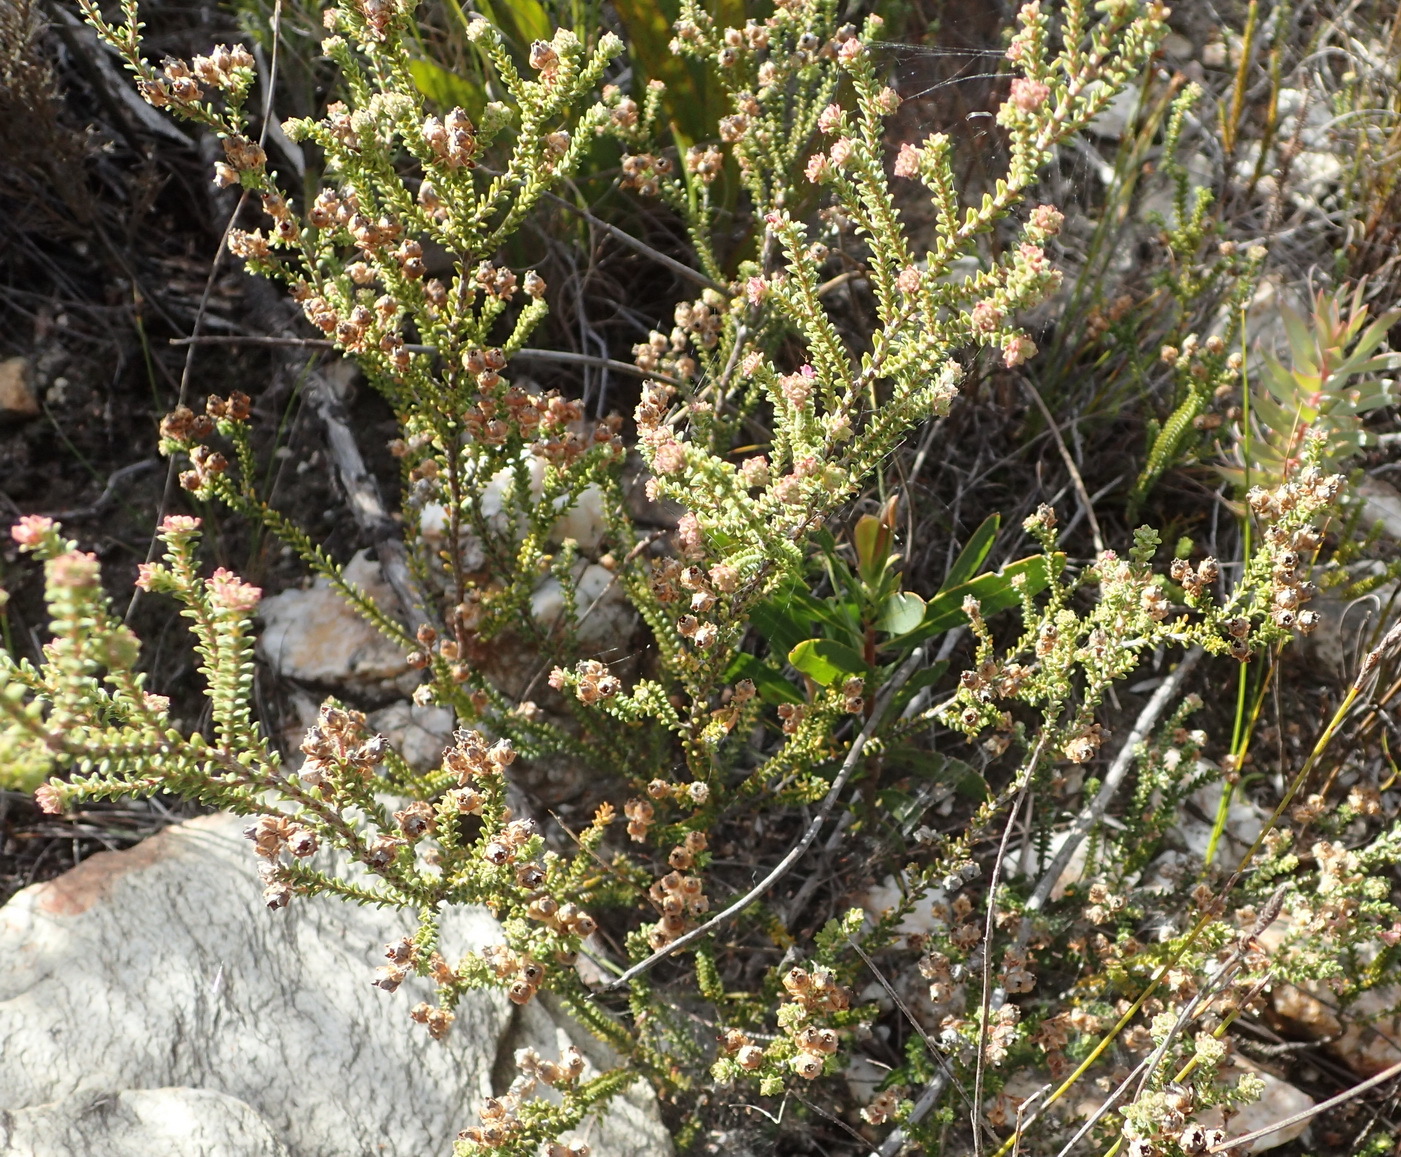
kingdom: Plantae
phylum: Tracheophyta
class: Magnoliopsida
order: Ericales
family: Ericaceae
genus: Erica
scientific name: Erica fimbriata
